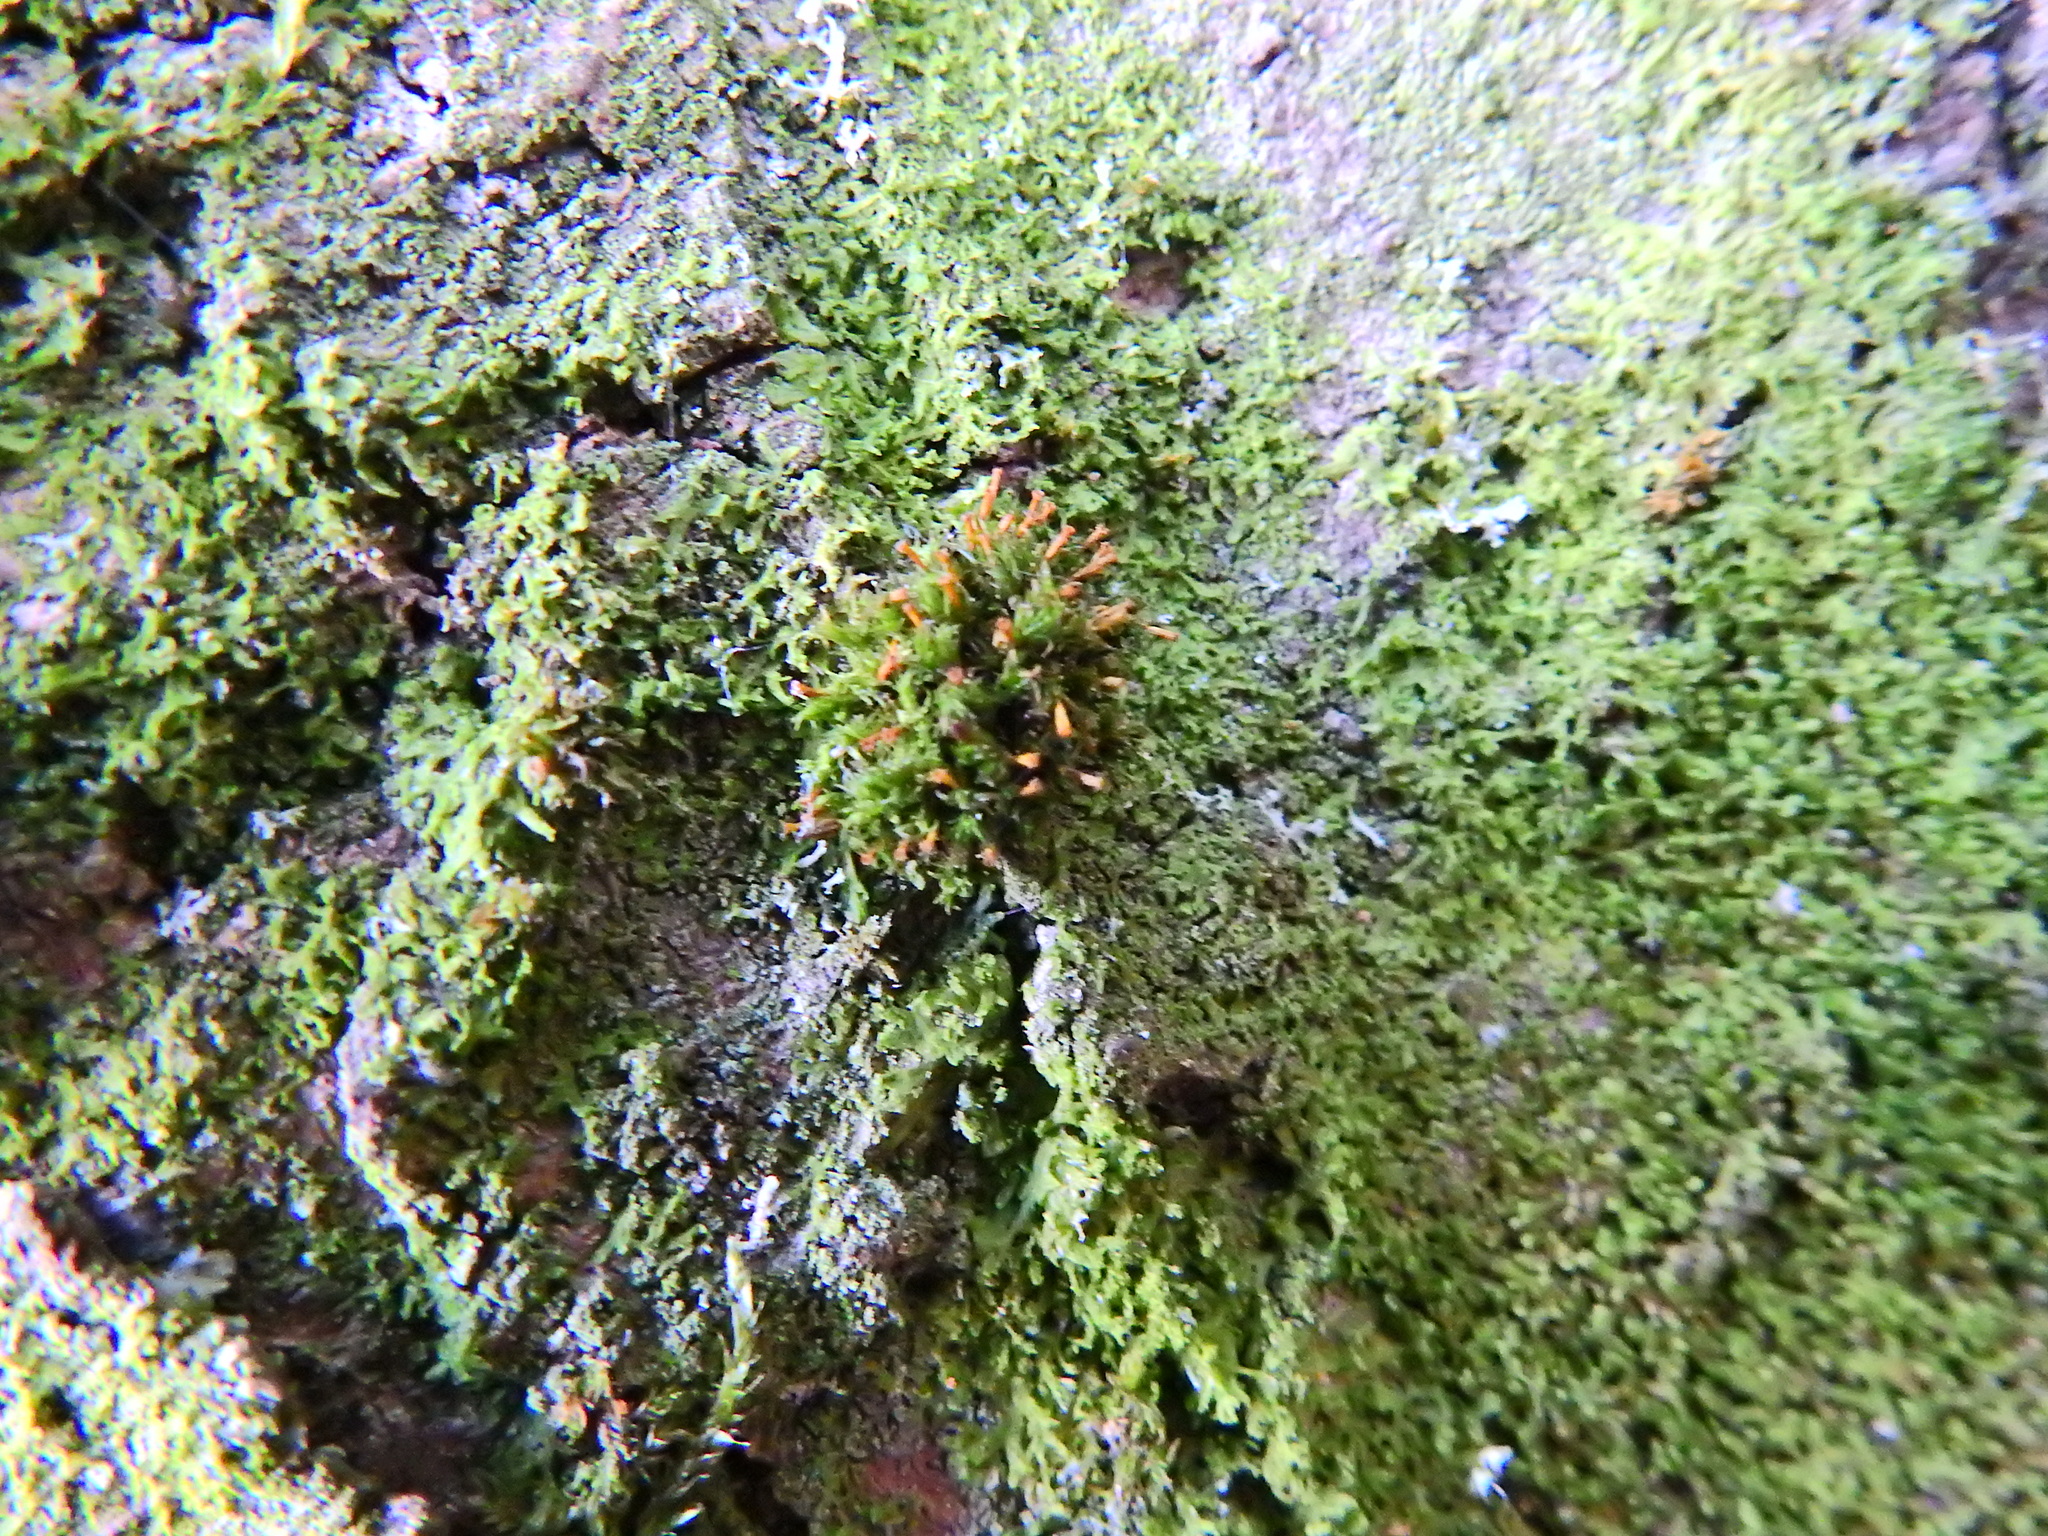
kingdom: Plantae
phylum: Bryophyta
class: Bryopsida
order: Orthotrichales
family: Orthotrichaceae
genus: Orthotrichum
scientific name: Orthotrichum pulchellum
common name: Elegant bristle-moss
